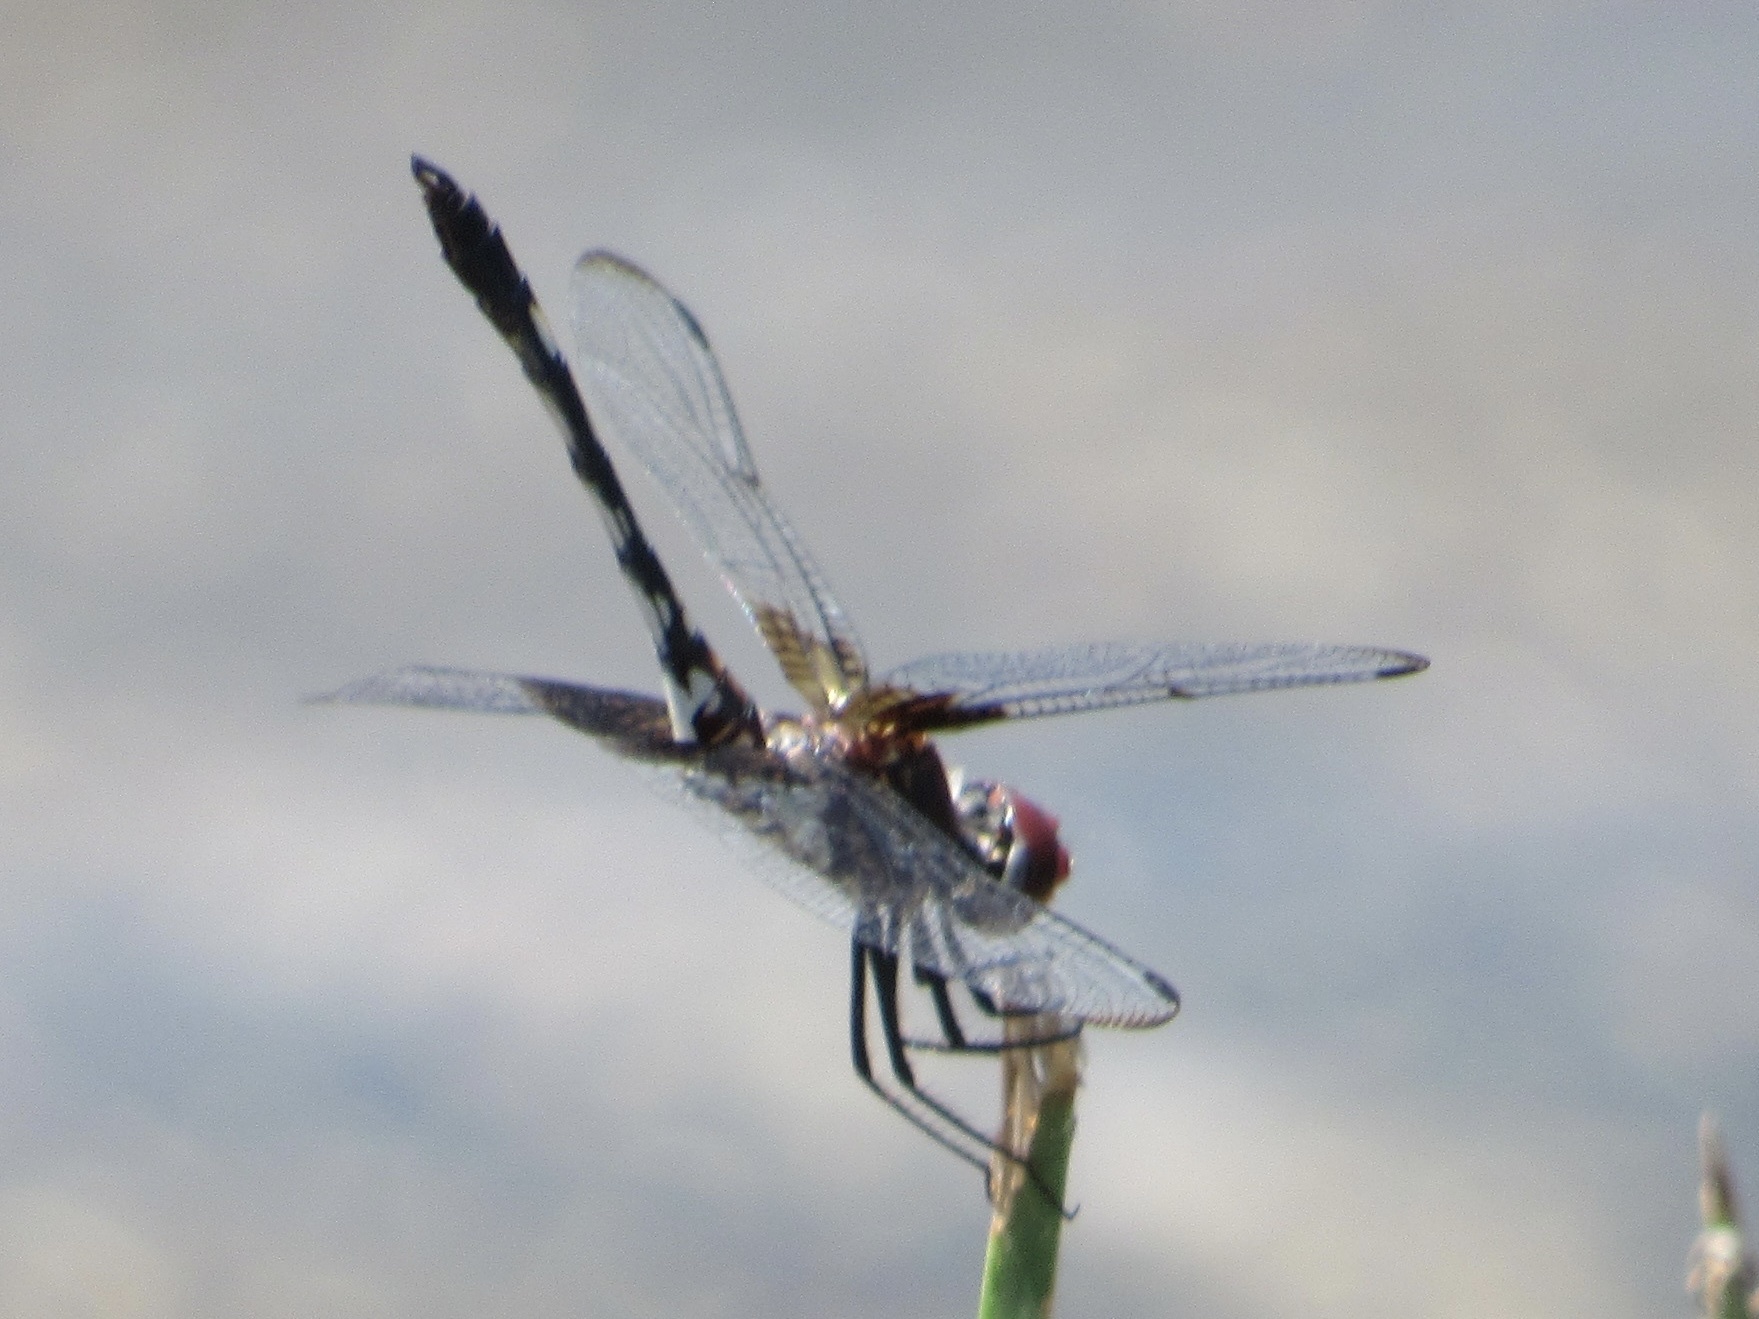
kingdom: Animalia
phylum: Arthropoda
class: Insecta
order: Odonata
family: Libellulidae
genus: Dythemis
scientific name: Dythemis fugax
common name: Checkered setwing
